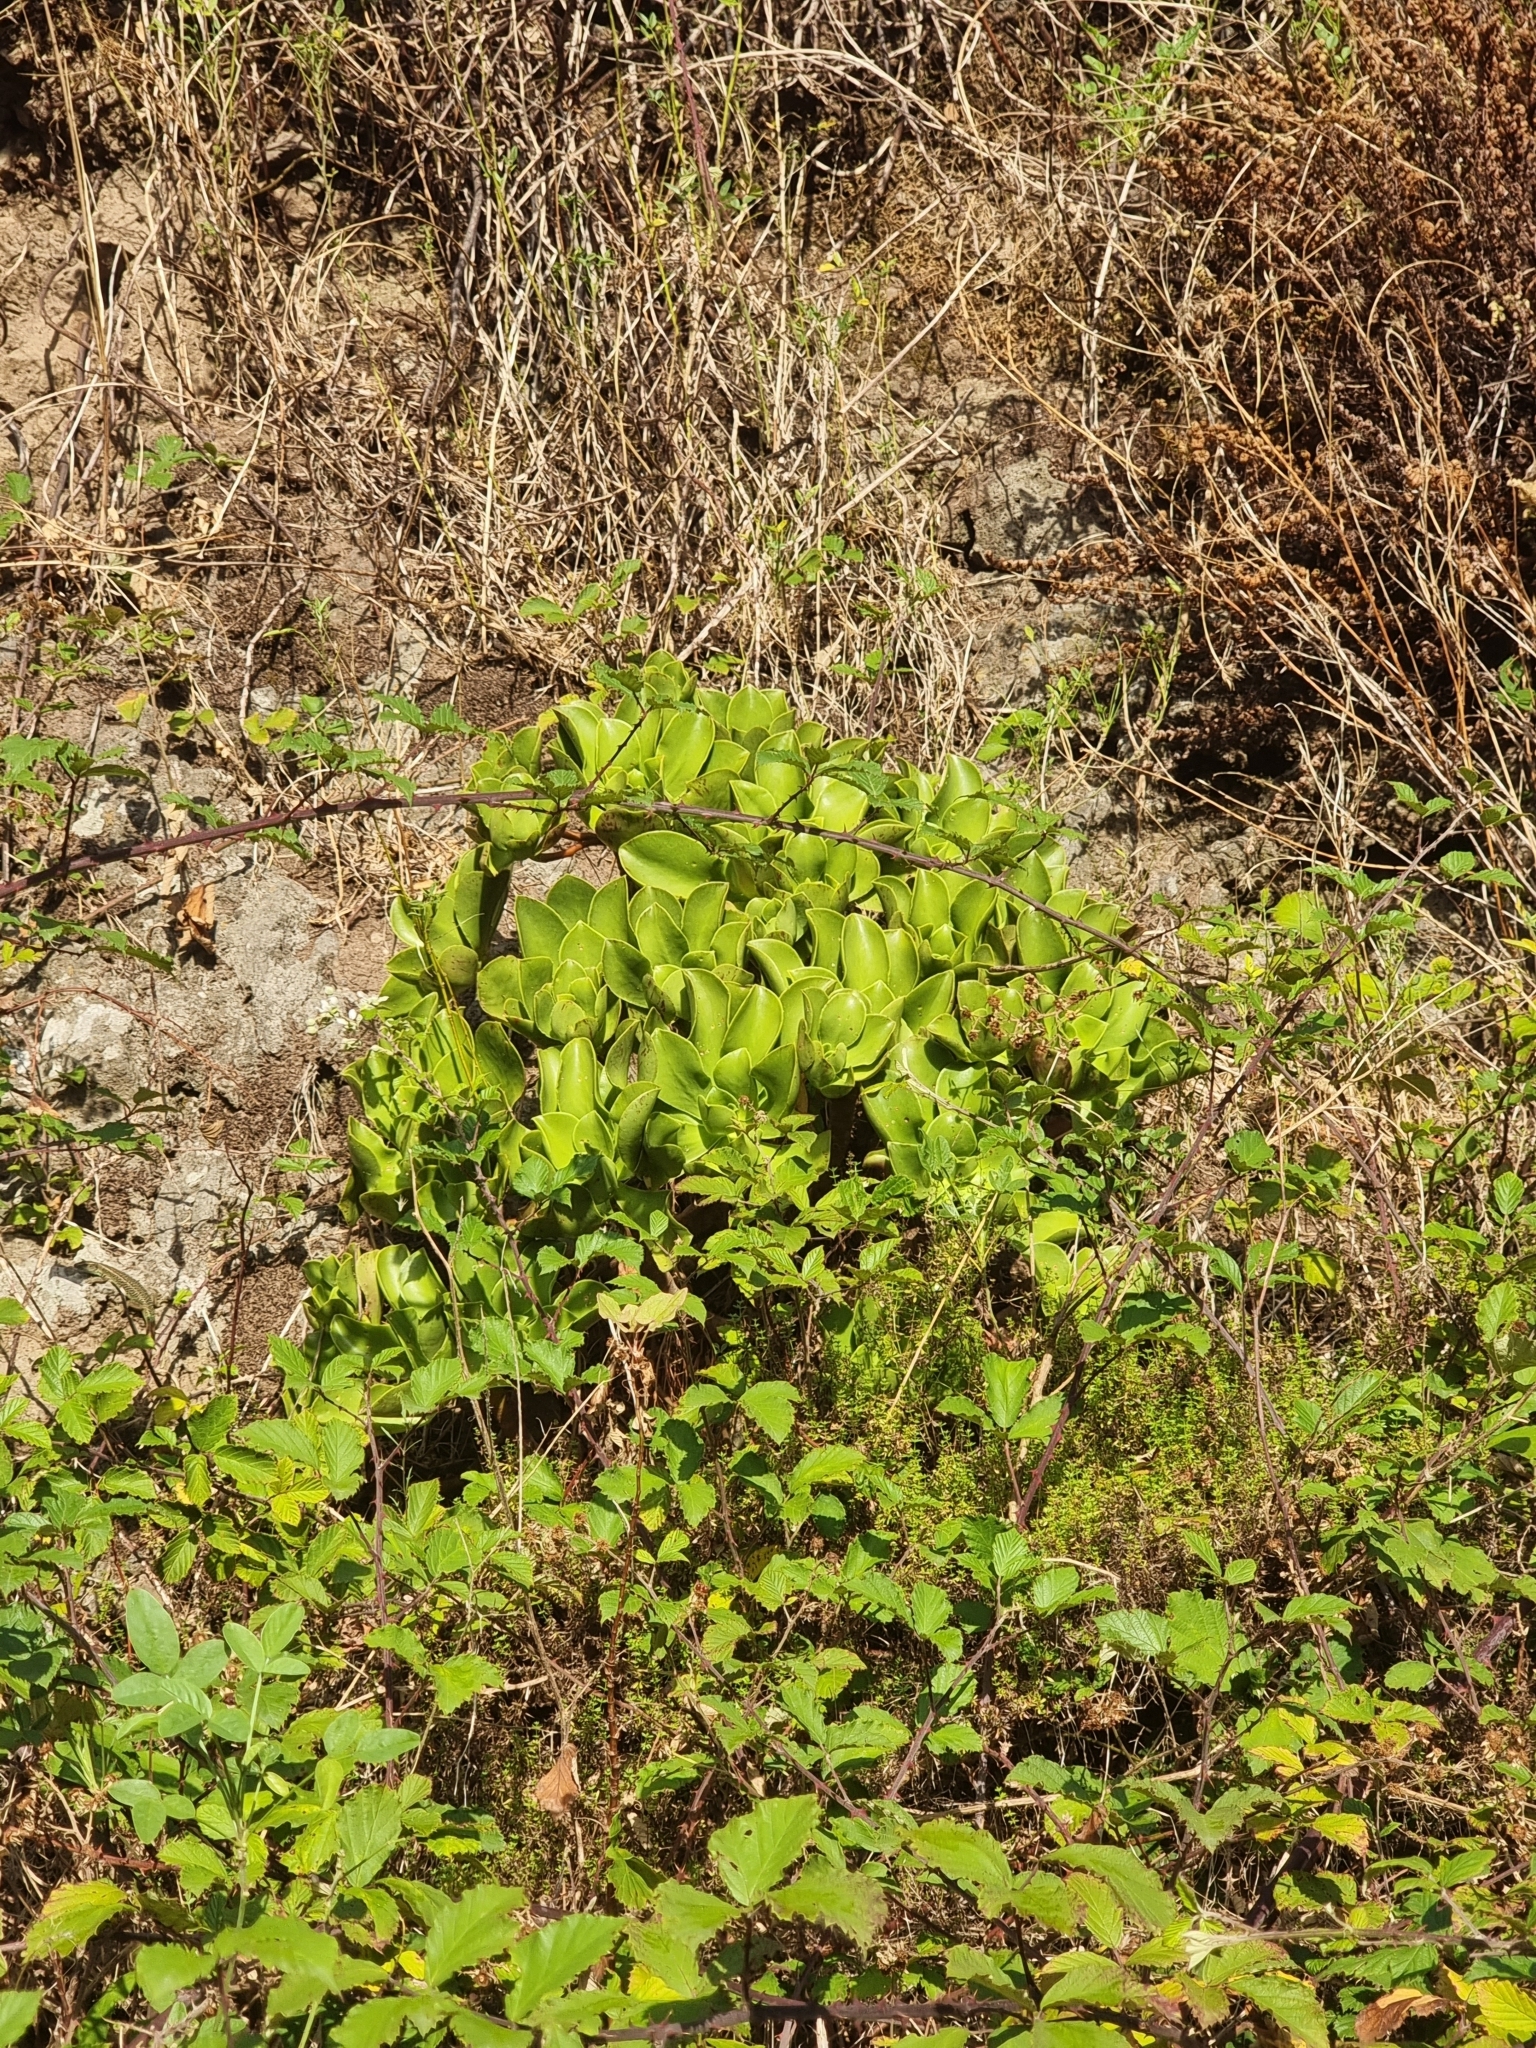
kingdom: Plantae
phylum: Tracheophyta
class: Magnoliopsida
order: Saxifragales
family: Crassulaceae
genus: Aeonium
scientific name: Aeonium glutinosum
